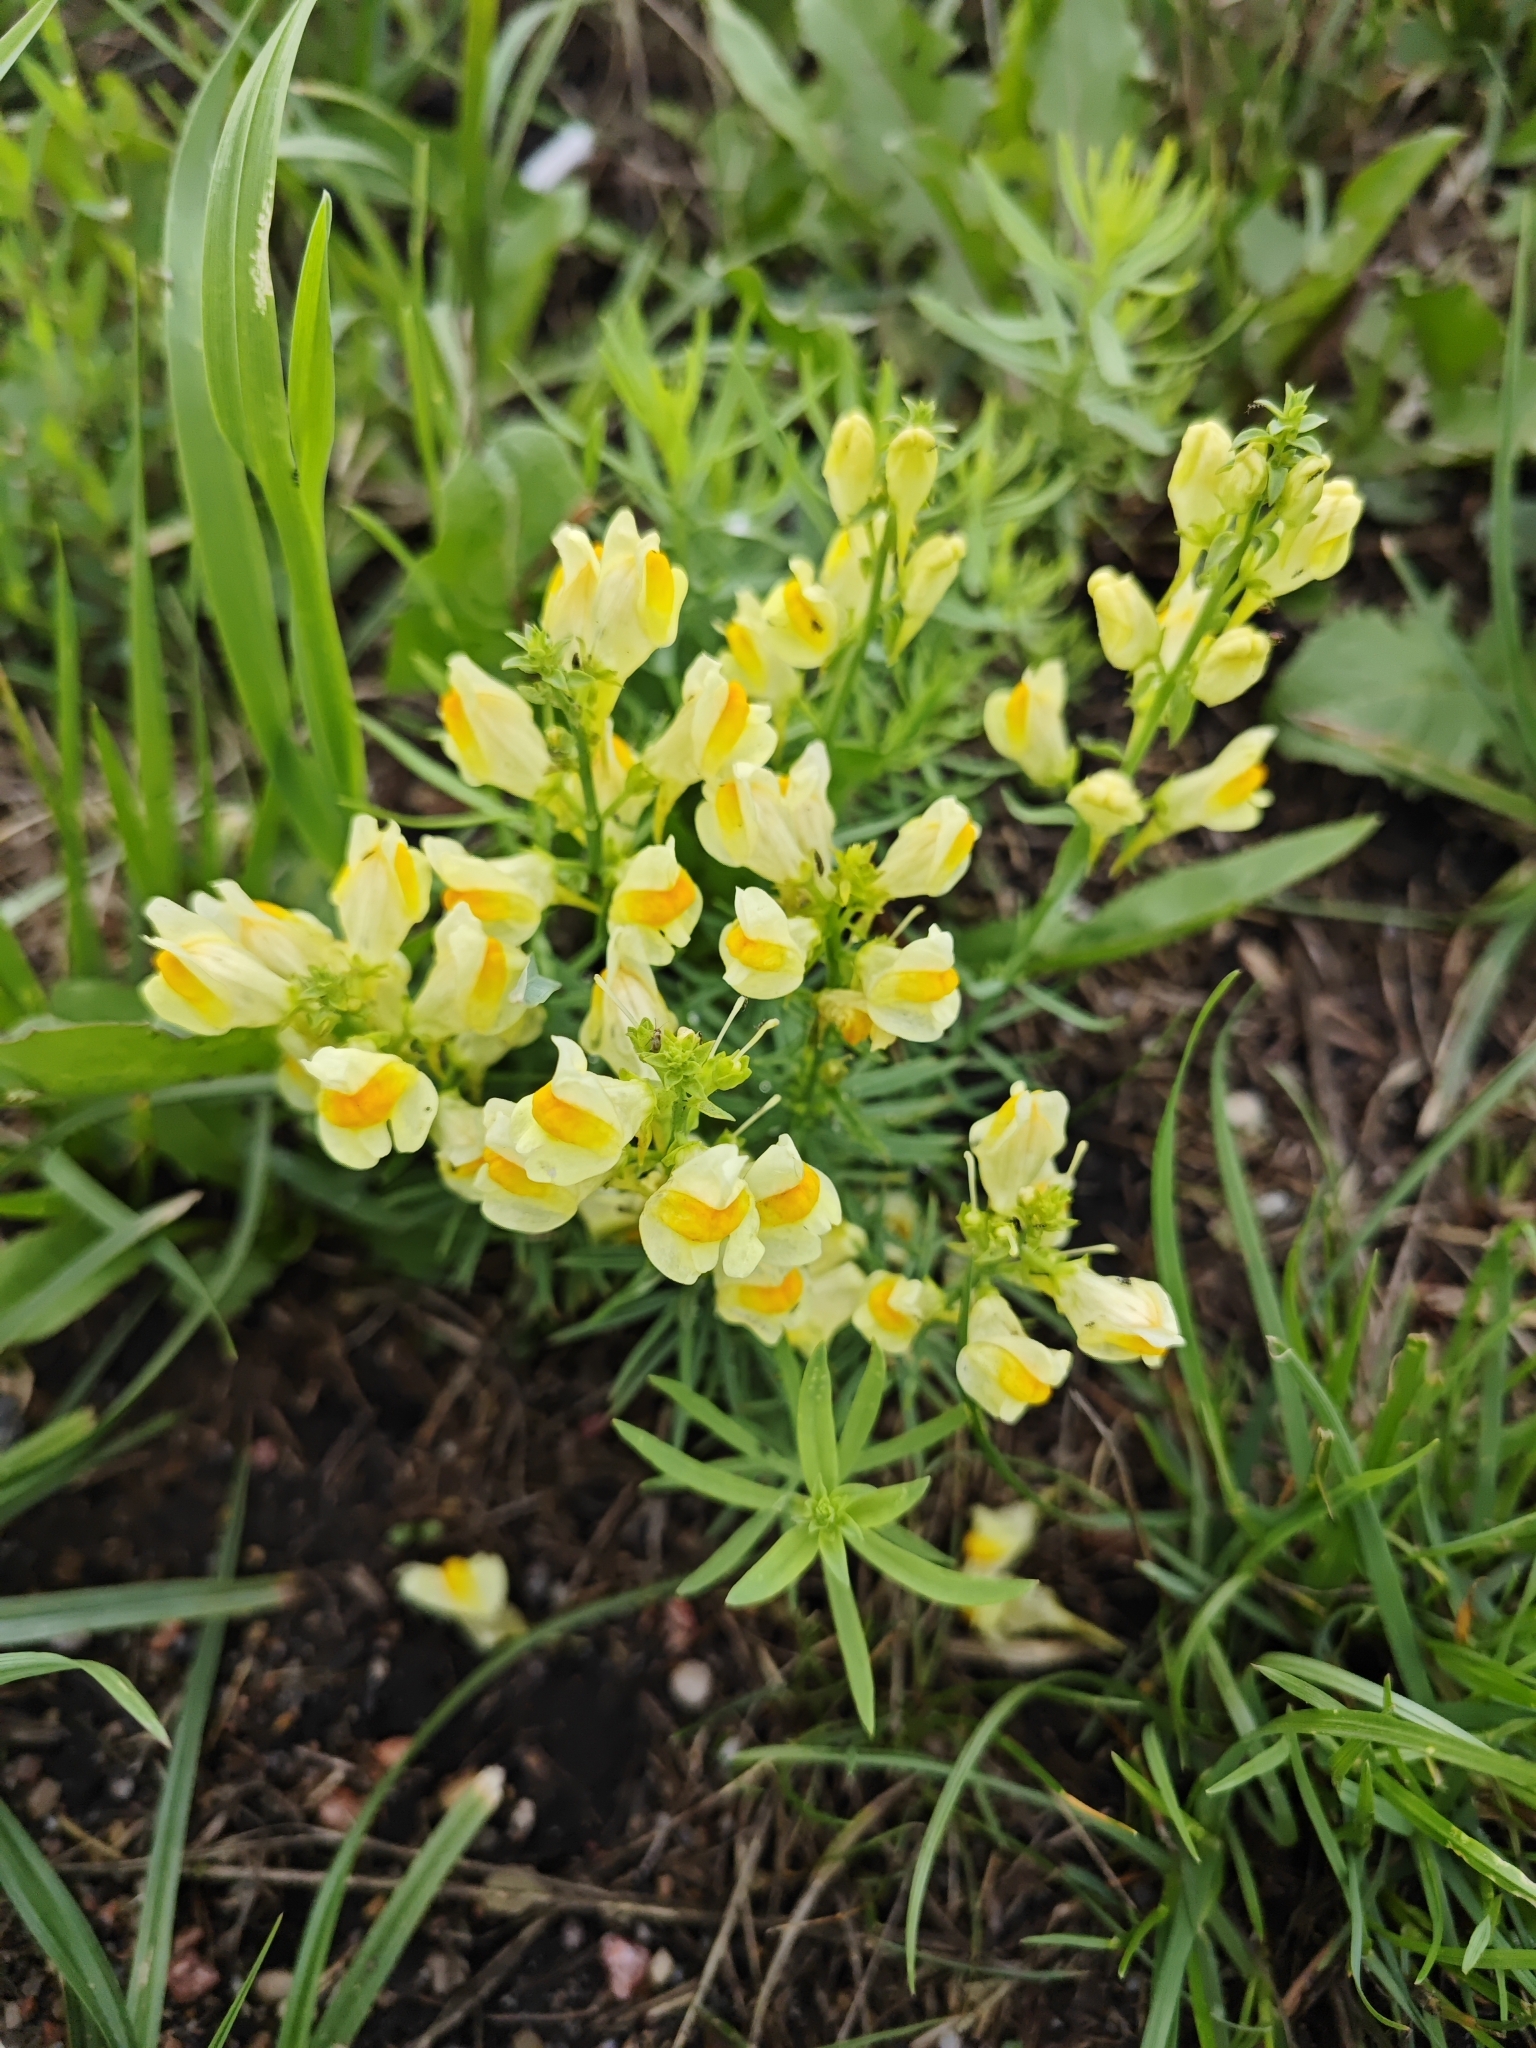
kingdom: Plantae
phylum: Tracheophyta
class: Magnoliopsida
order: Lamiales
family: Plantaginaceae
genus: Linaria
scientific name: Linaria vulgaris
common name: Butter and eggs
